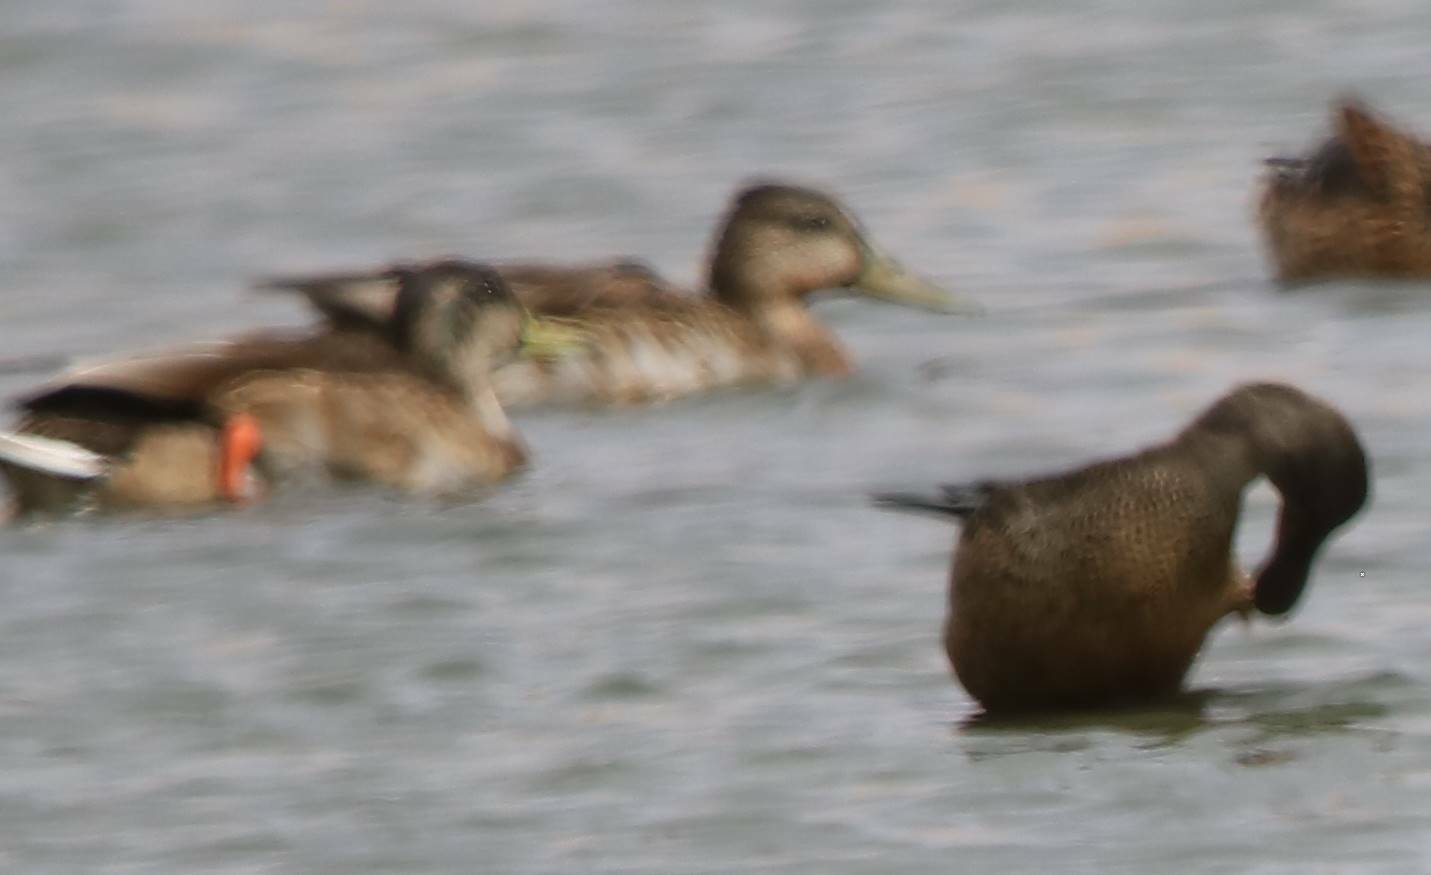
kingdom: Animalia
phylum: Chordata
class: Aves
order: Anseriformes
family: Anatidae
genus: Anas
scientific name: Anas platyrhynchos
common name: Mallard
